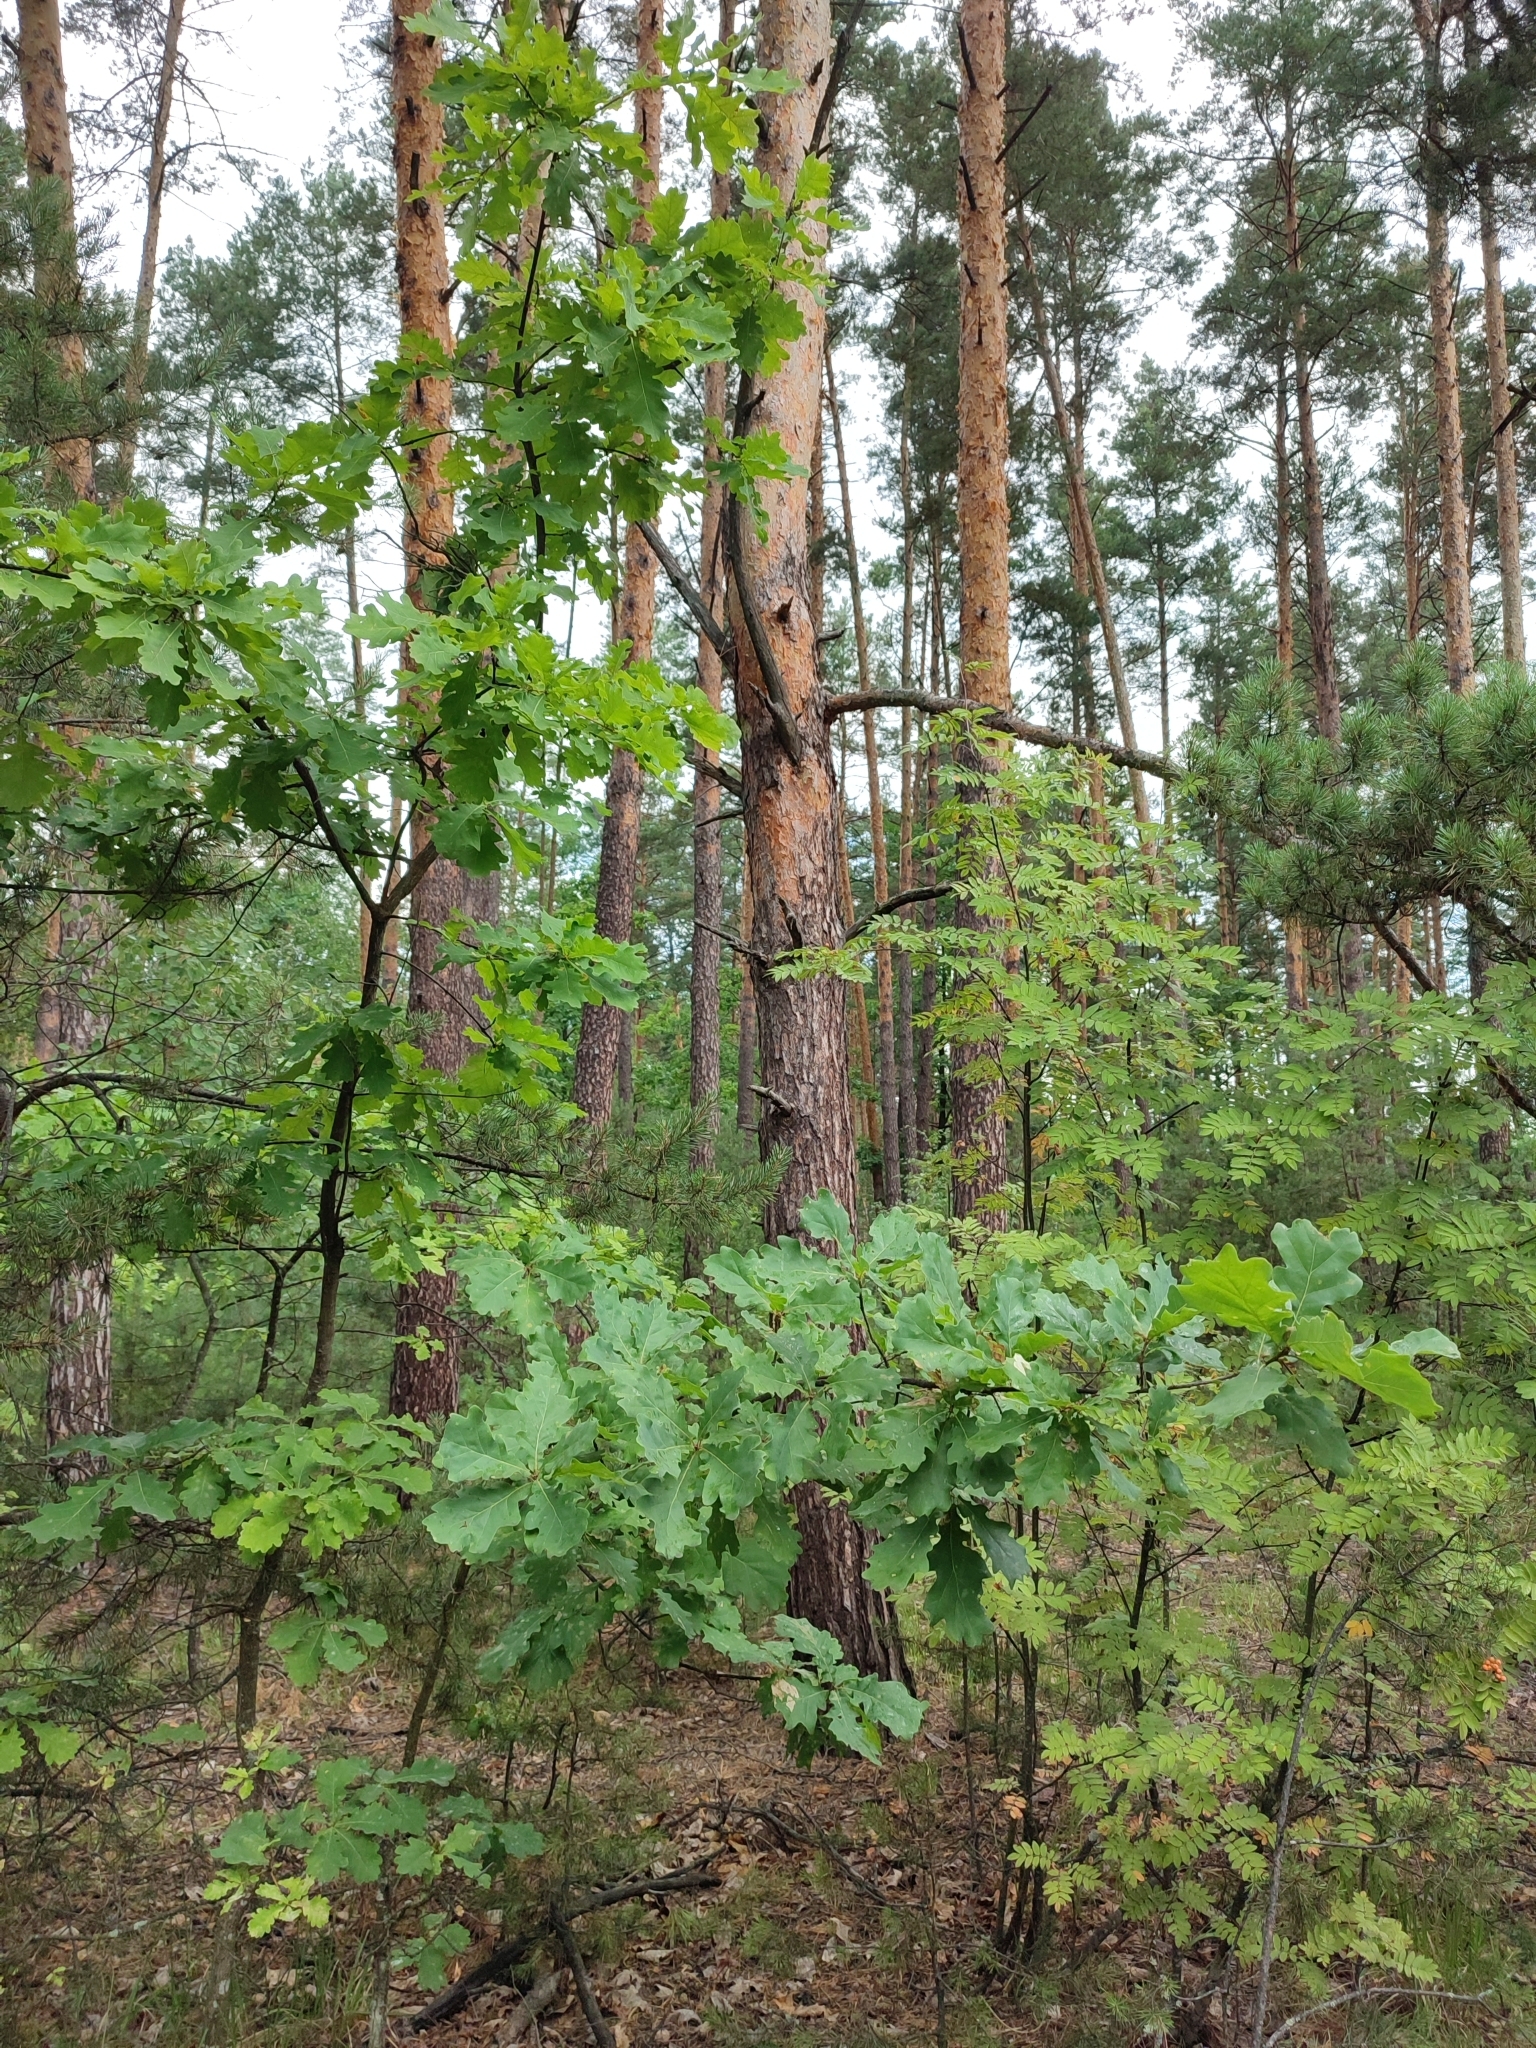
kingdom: Plantae
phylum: Tracheophyta
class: Magnoliopsida
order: Fagales
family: Fagaceae
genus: Quercus
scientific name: Quercus robur
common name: Pedunculate oak
